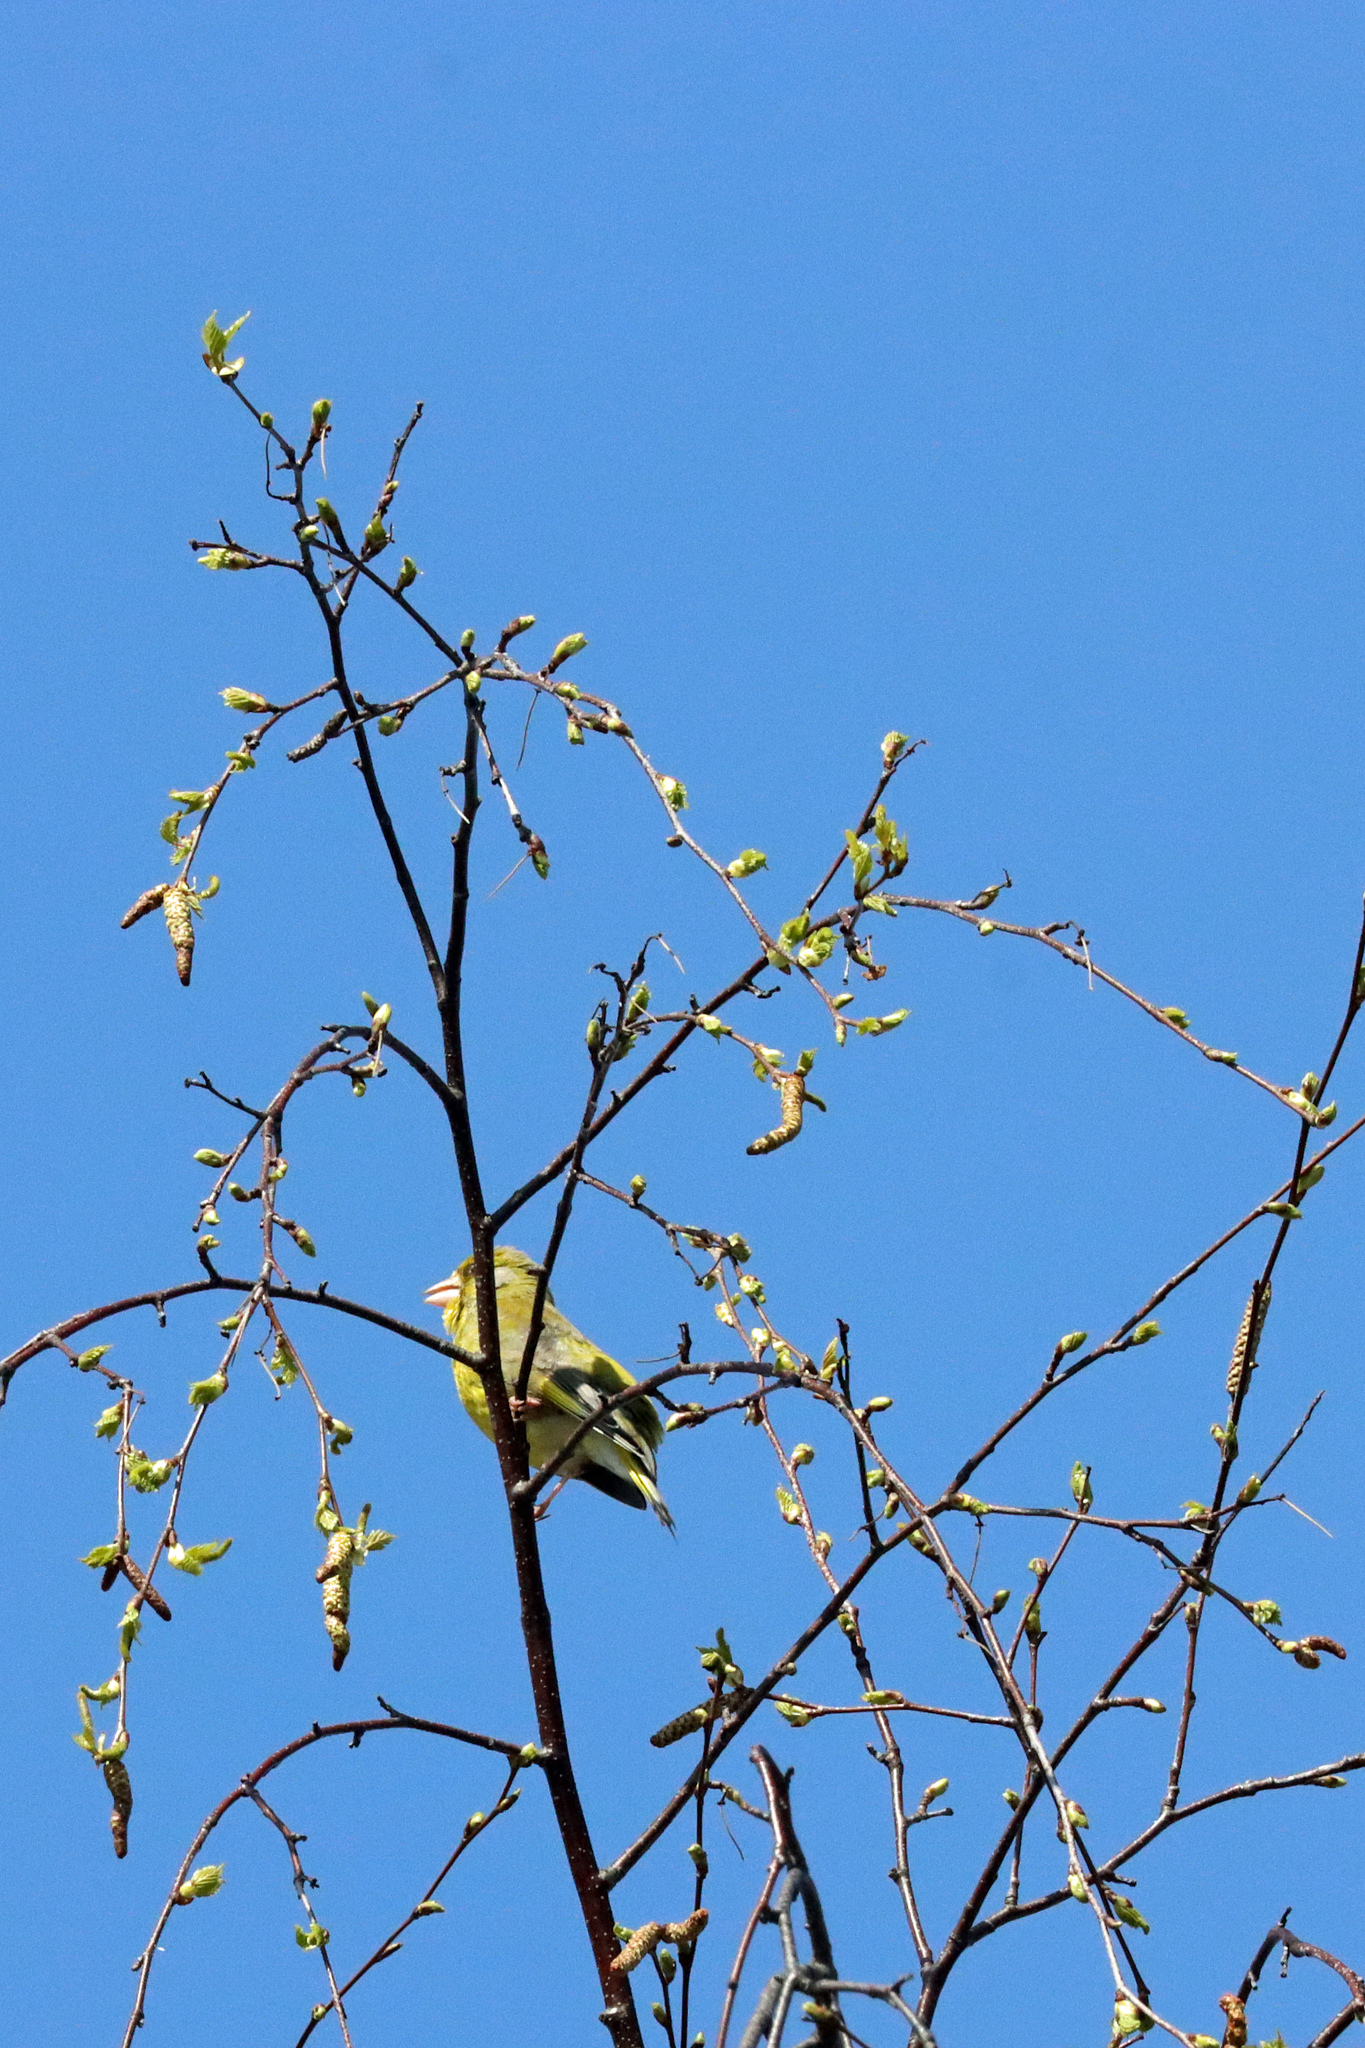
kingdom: Plantae
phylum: Tracheophyta
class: Liliopsida
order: Poales
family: Poaceae
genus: Chloris
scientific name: Chloris chloris
